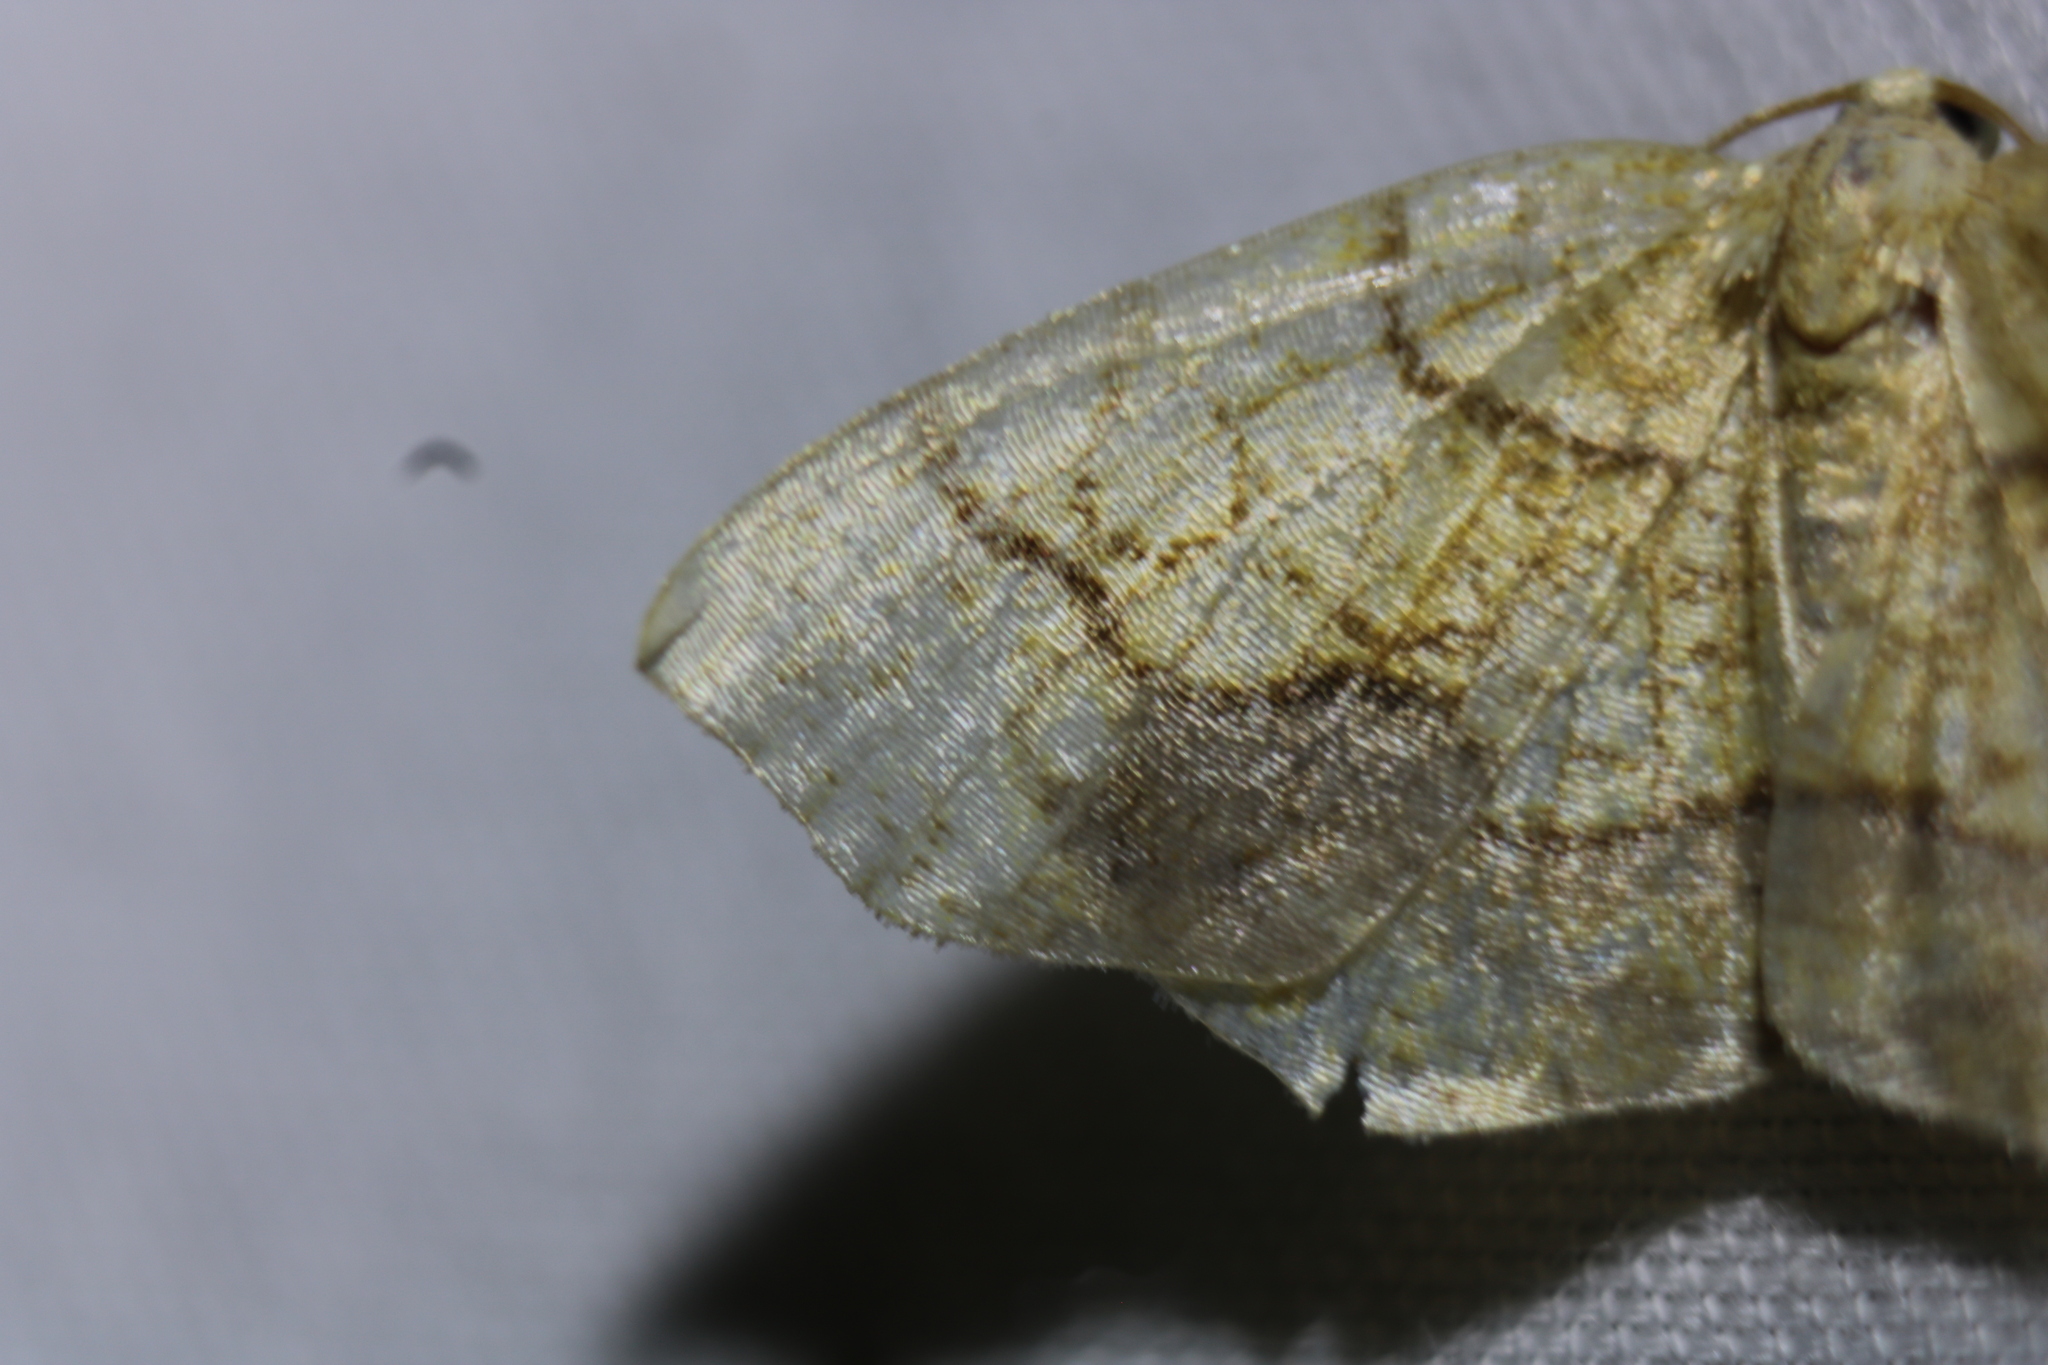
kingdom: Animalia
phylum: Arthropoda
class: Insecta
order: Lepidoptera
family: Geometridae
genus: Nematocampa
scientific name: Nematocampa resistaria
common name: Horned spanworm moth
